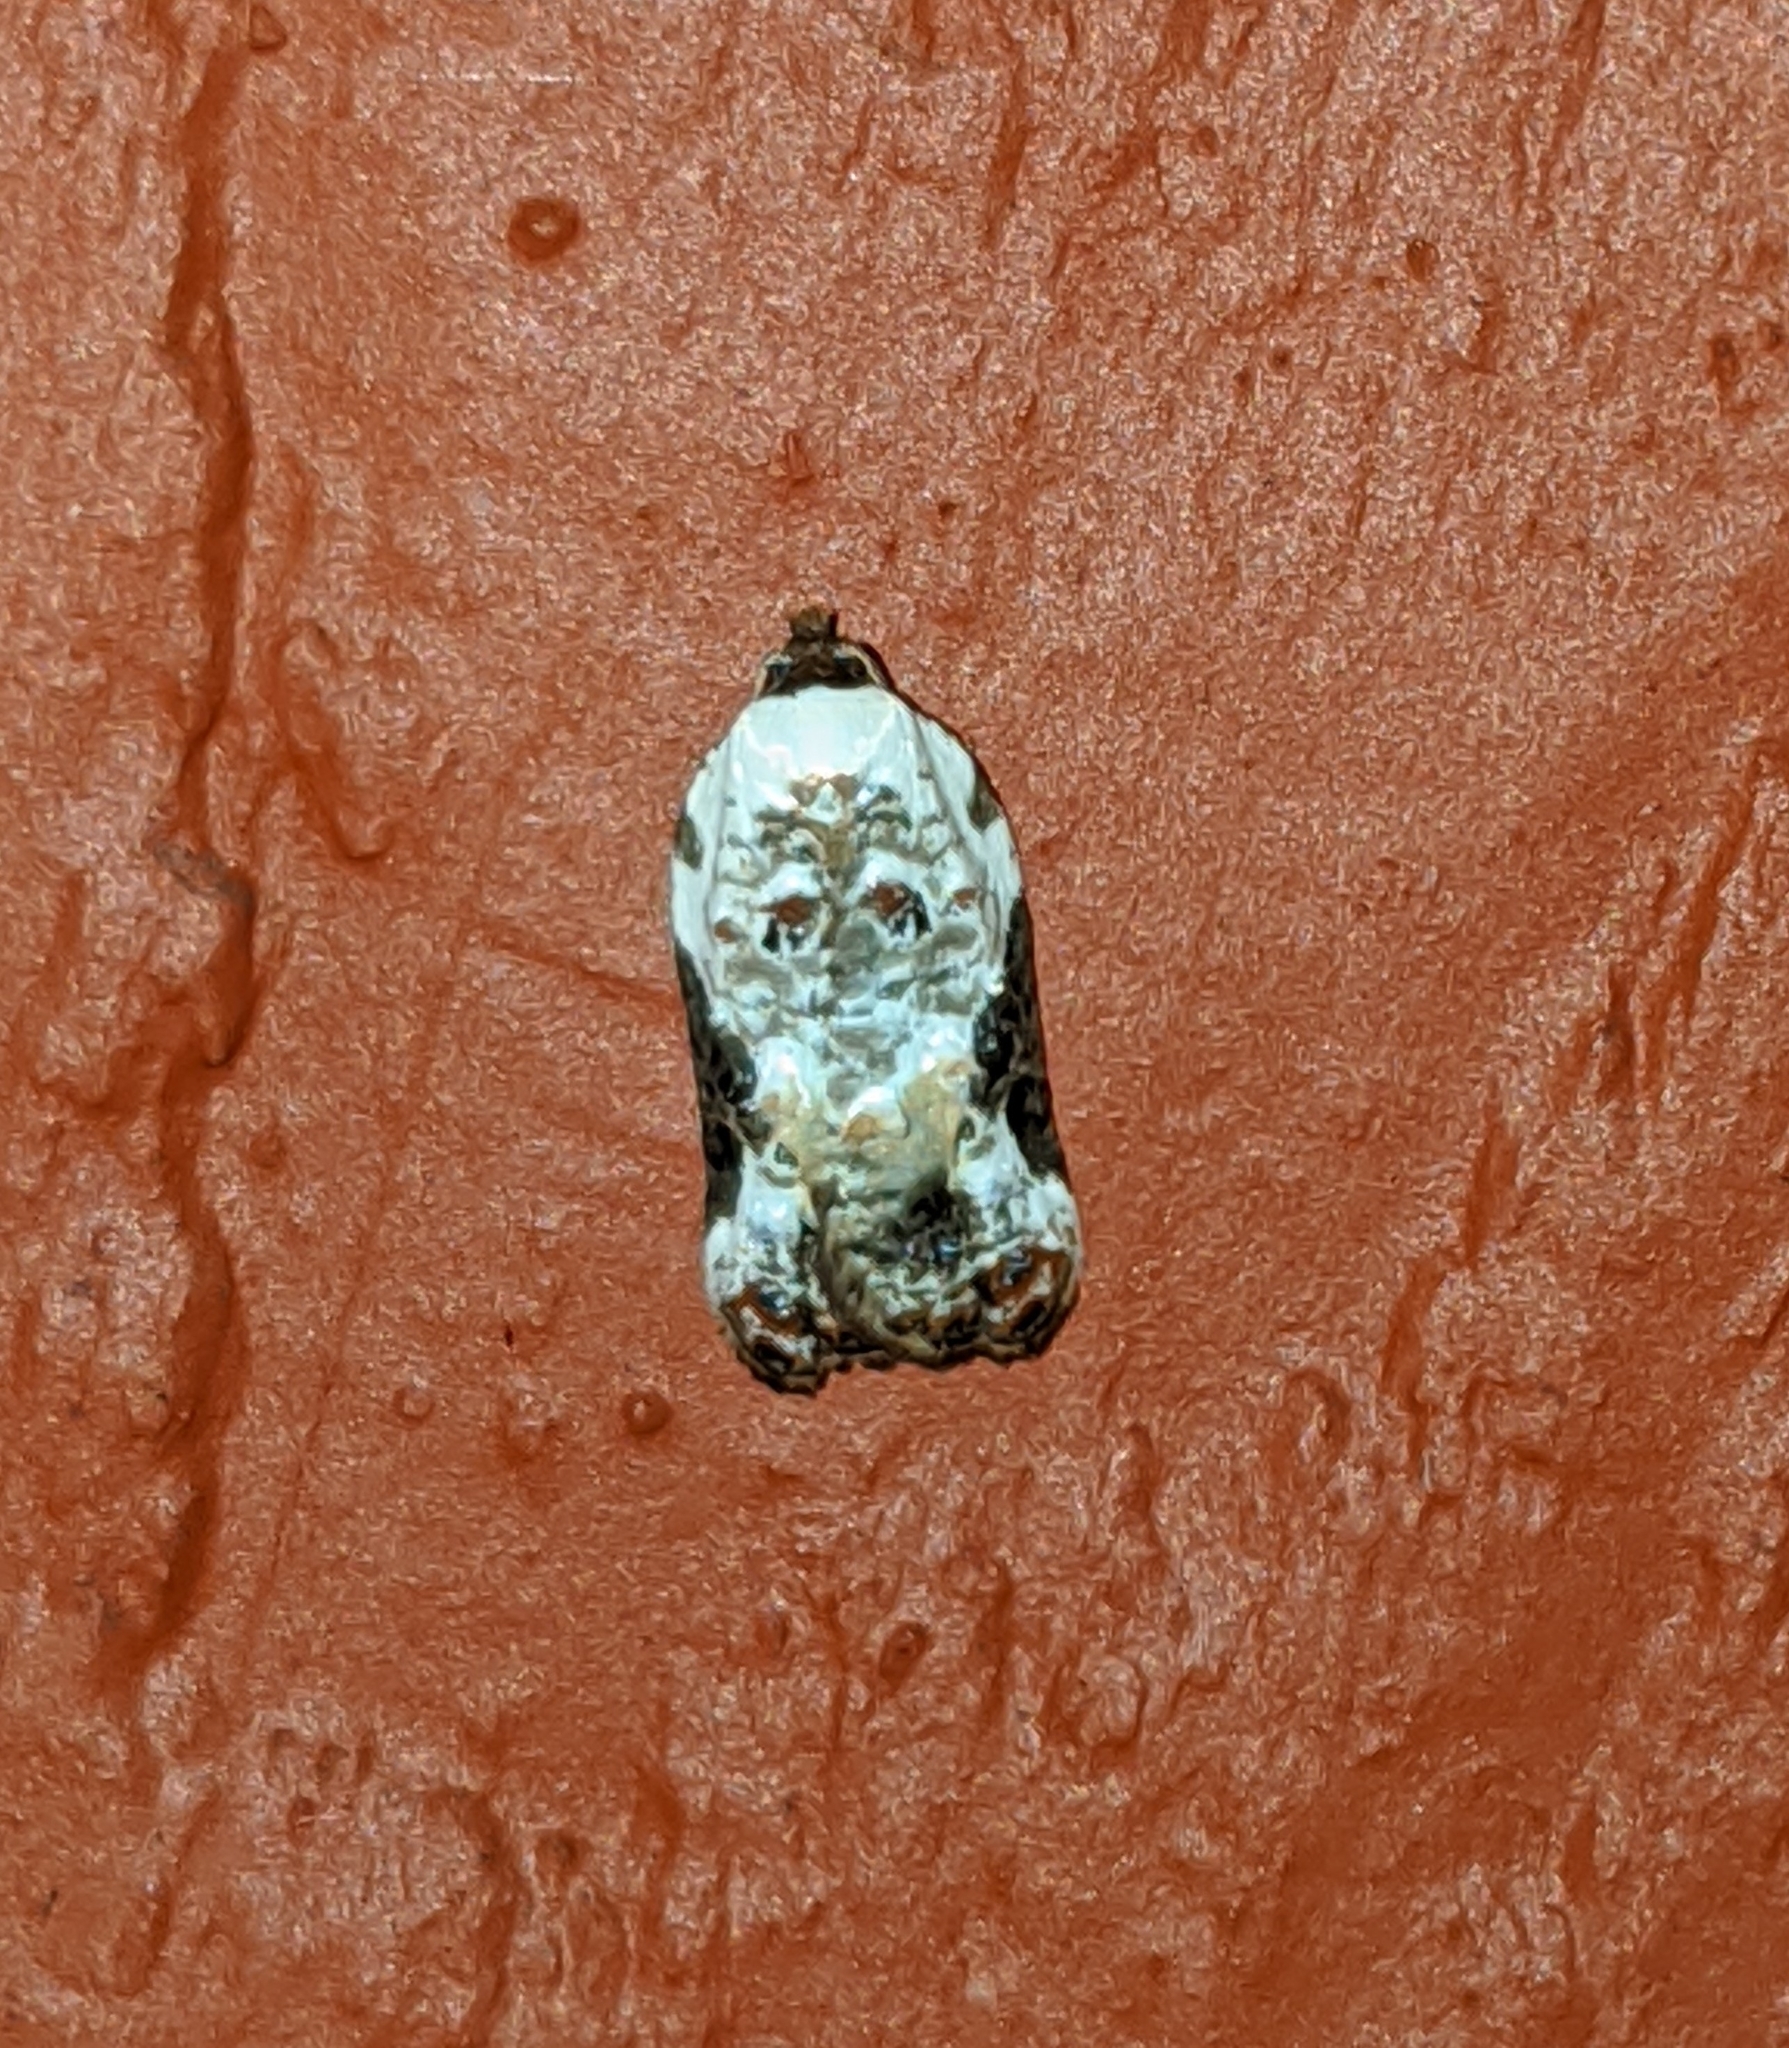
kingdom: Animalia
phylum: Arthropoda
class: Insecta
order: Lepidoptera
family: Tortricidae
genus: Acleris
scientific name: Acleris nivisellana
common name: Snowy-shouldered acleris moth
